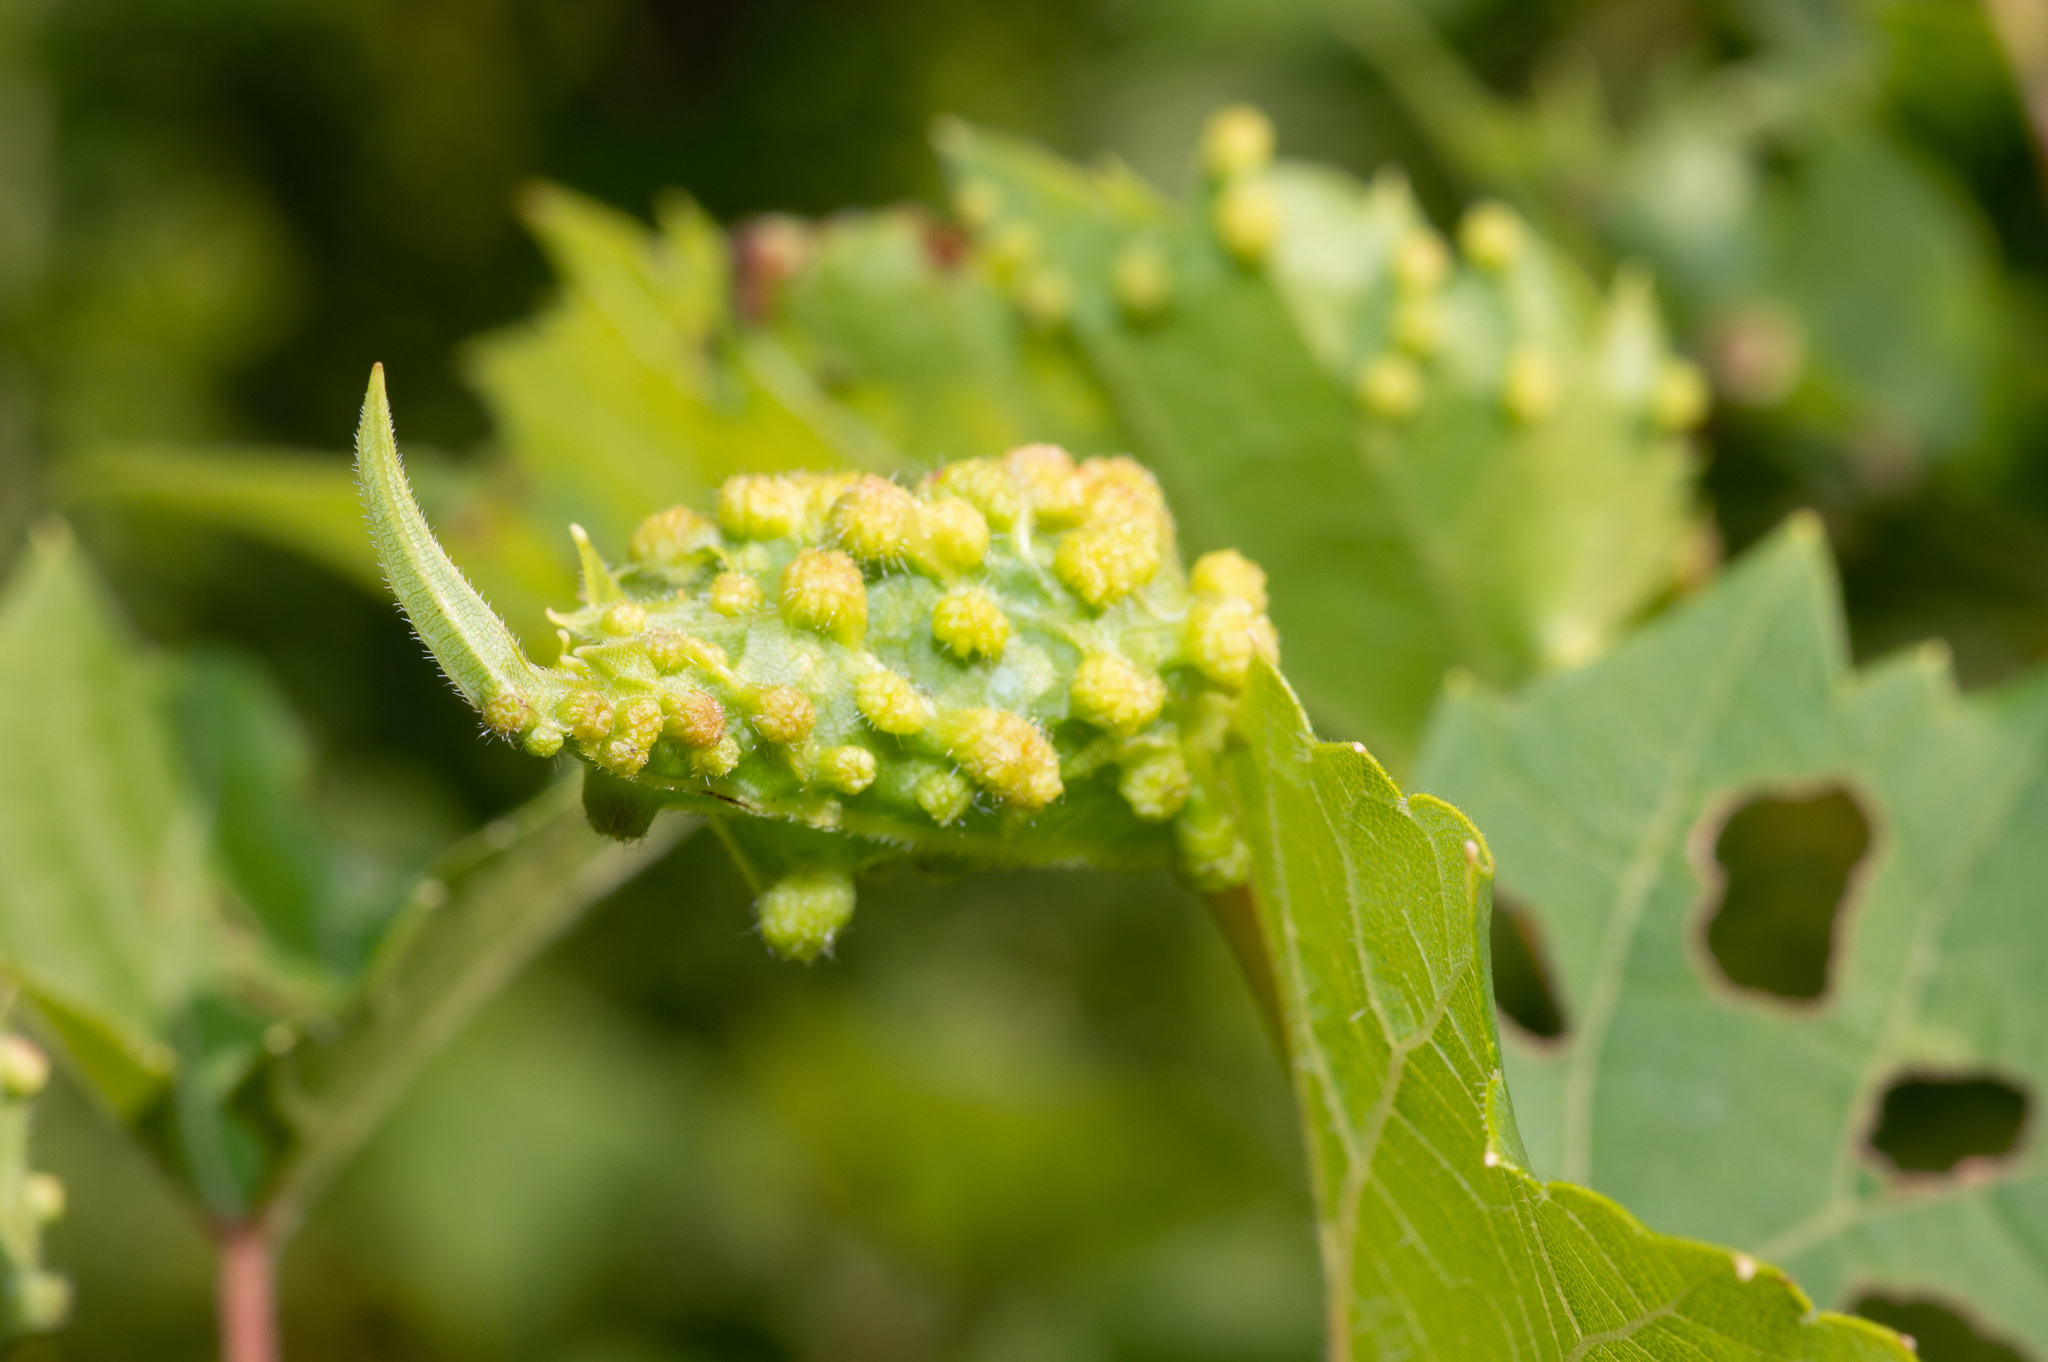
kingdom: Animalia
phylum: Arthropoda
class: Insecta
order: Hemiptera
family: Phylloxeridae
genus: Daktulosphaira
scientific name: Daktulosphaira vitifoliae
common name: Grape phylloxera
